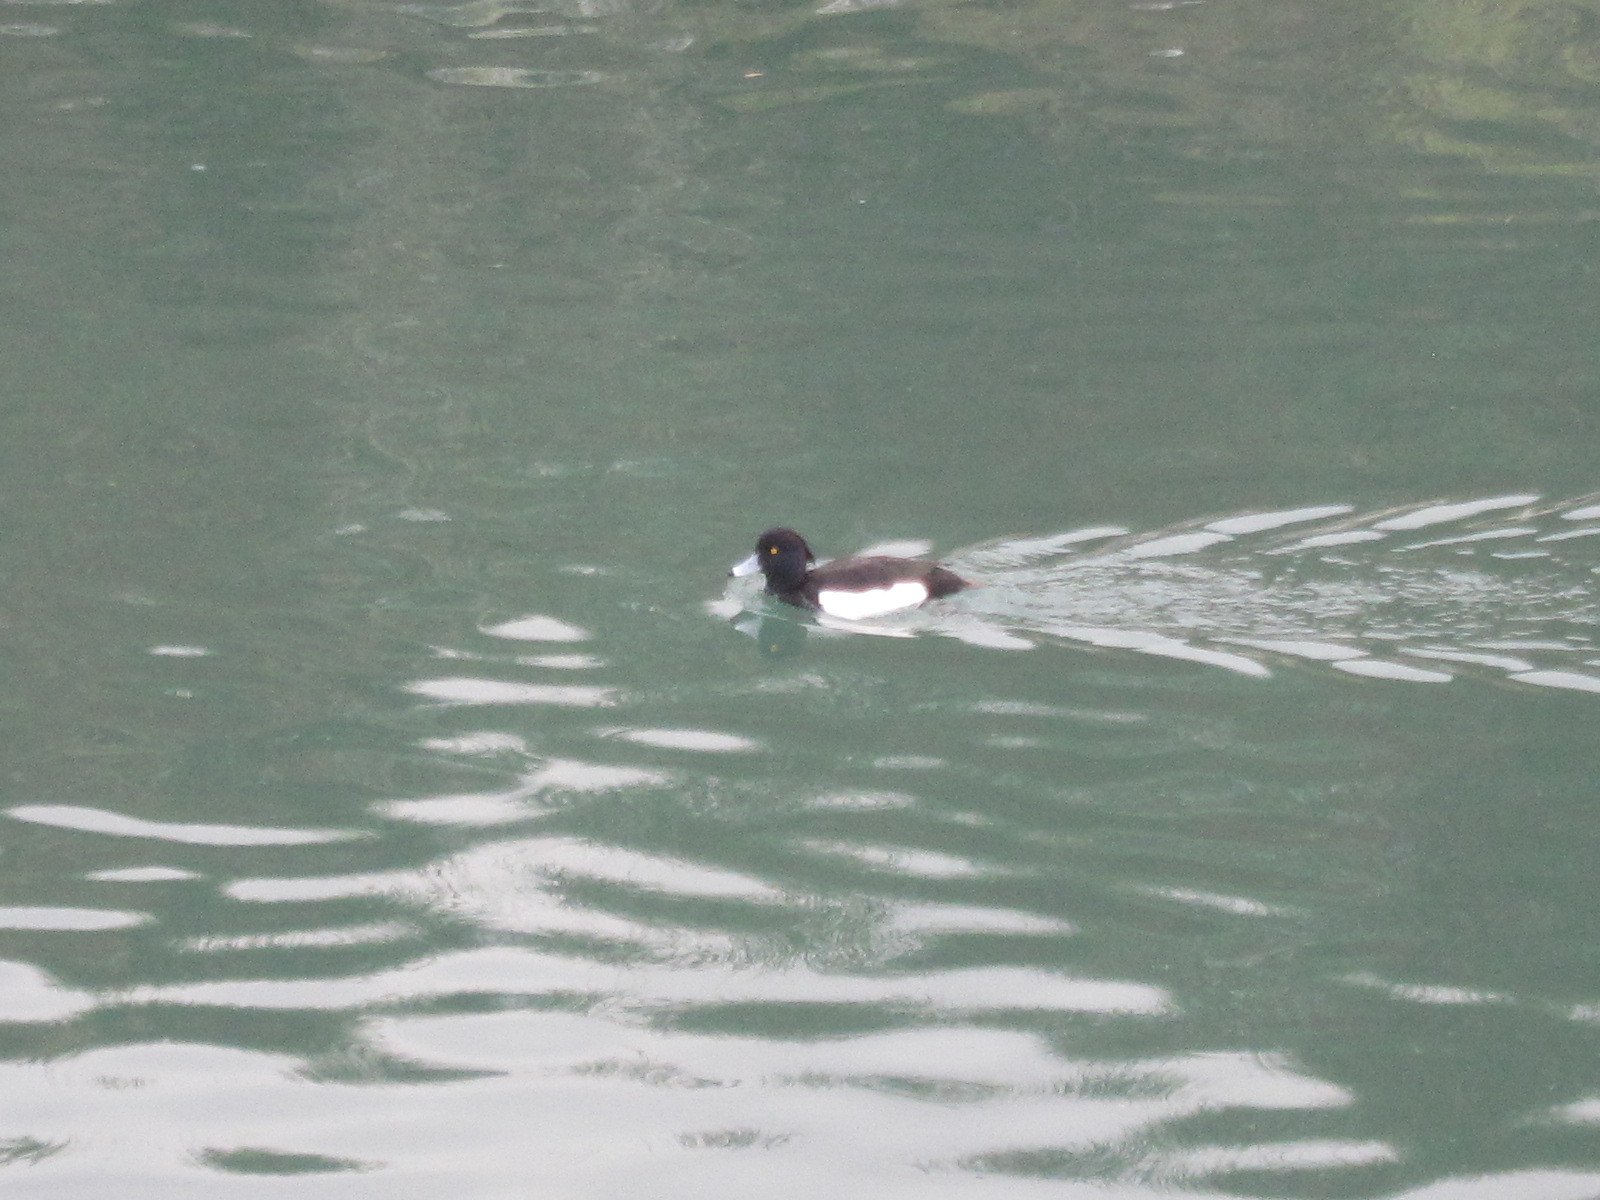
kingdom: Animalia
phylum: Chordata
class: Aves
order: Anseriformes
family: Anatidae
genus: Aythya
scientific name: Aythya fuligula
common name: Tufted duck
